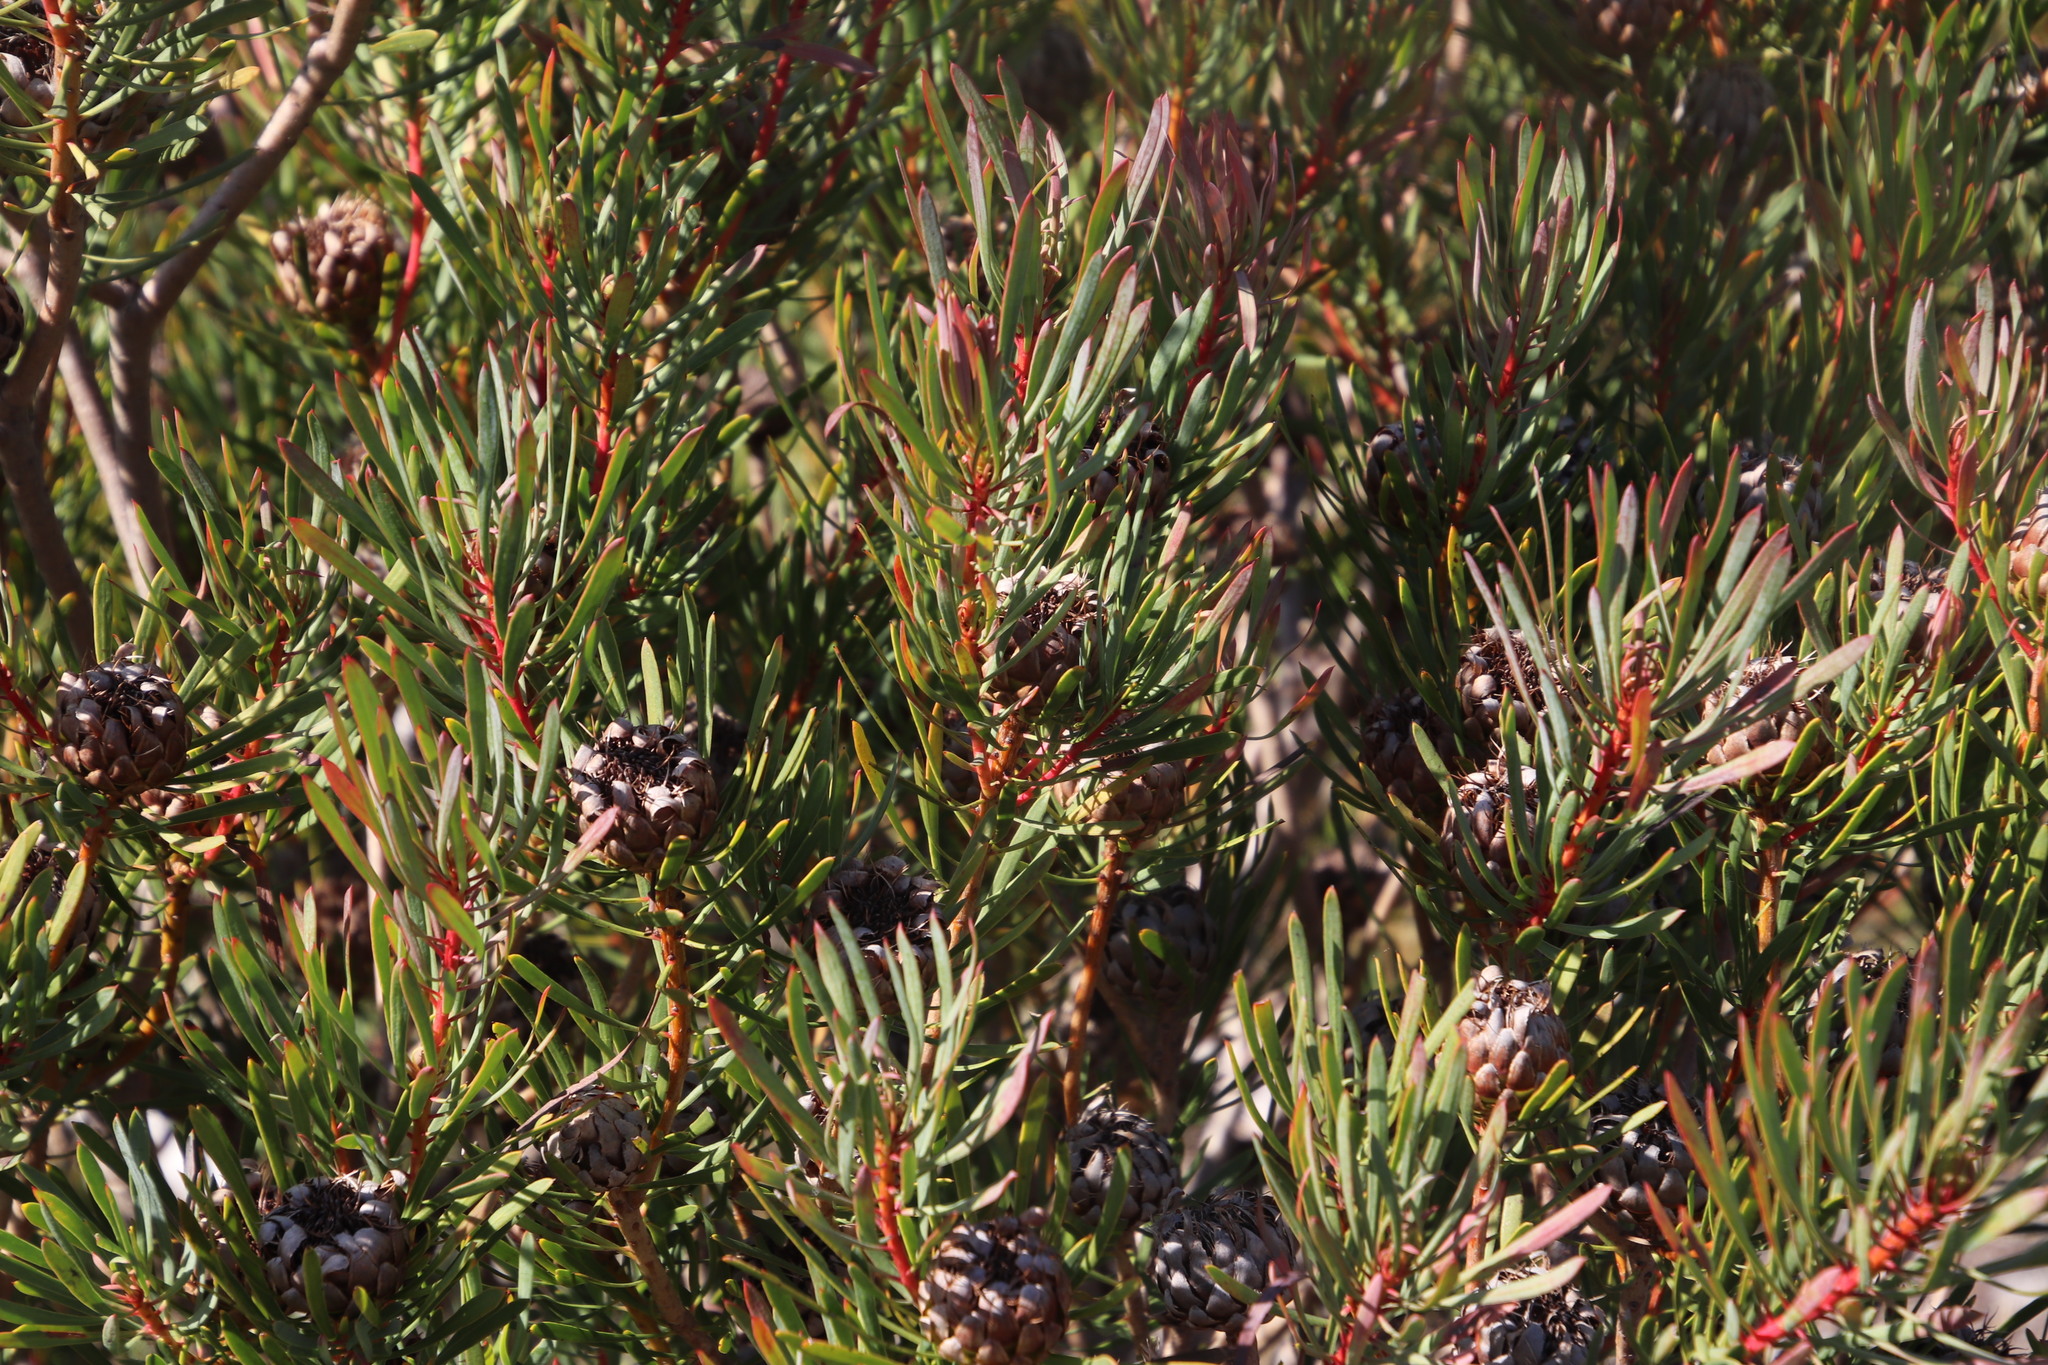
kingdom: Plantae
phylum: Tracheophyta
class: Magnoliopsida
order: Proteales
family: Proteaceae
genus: Protea
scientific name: Protea scolymocephala
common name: Thistle sugarbush
